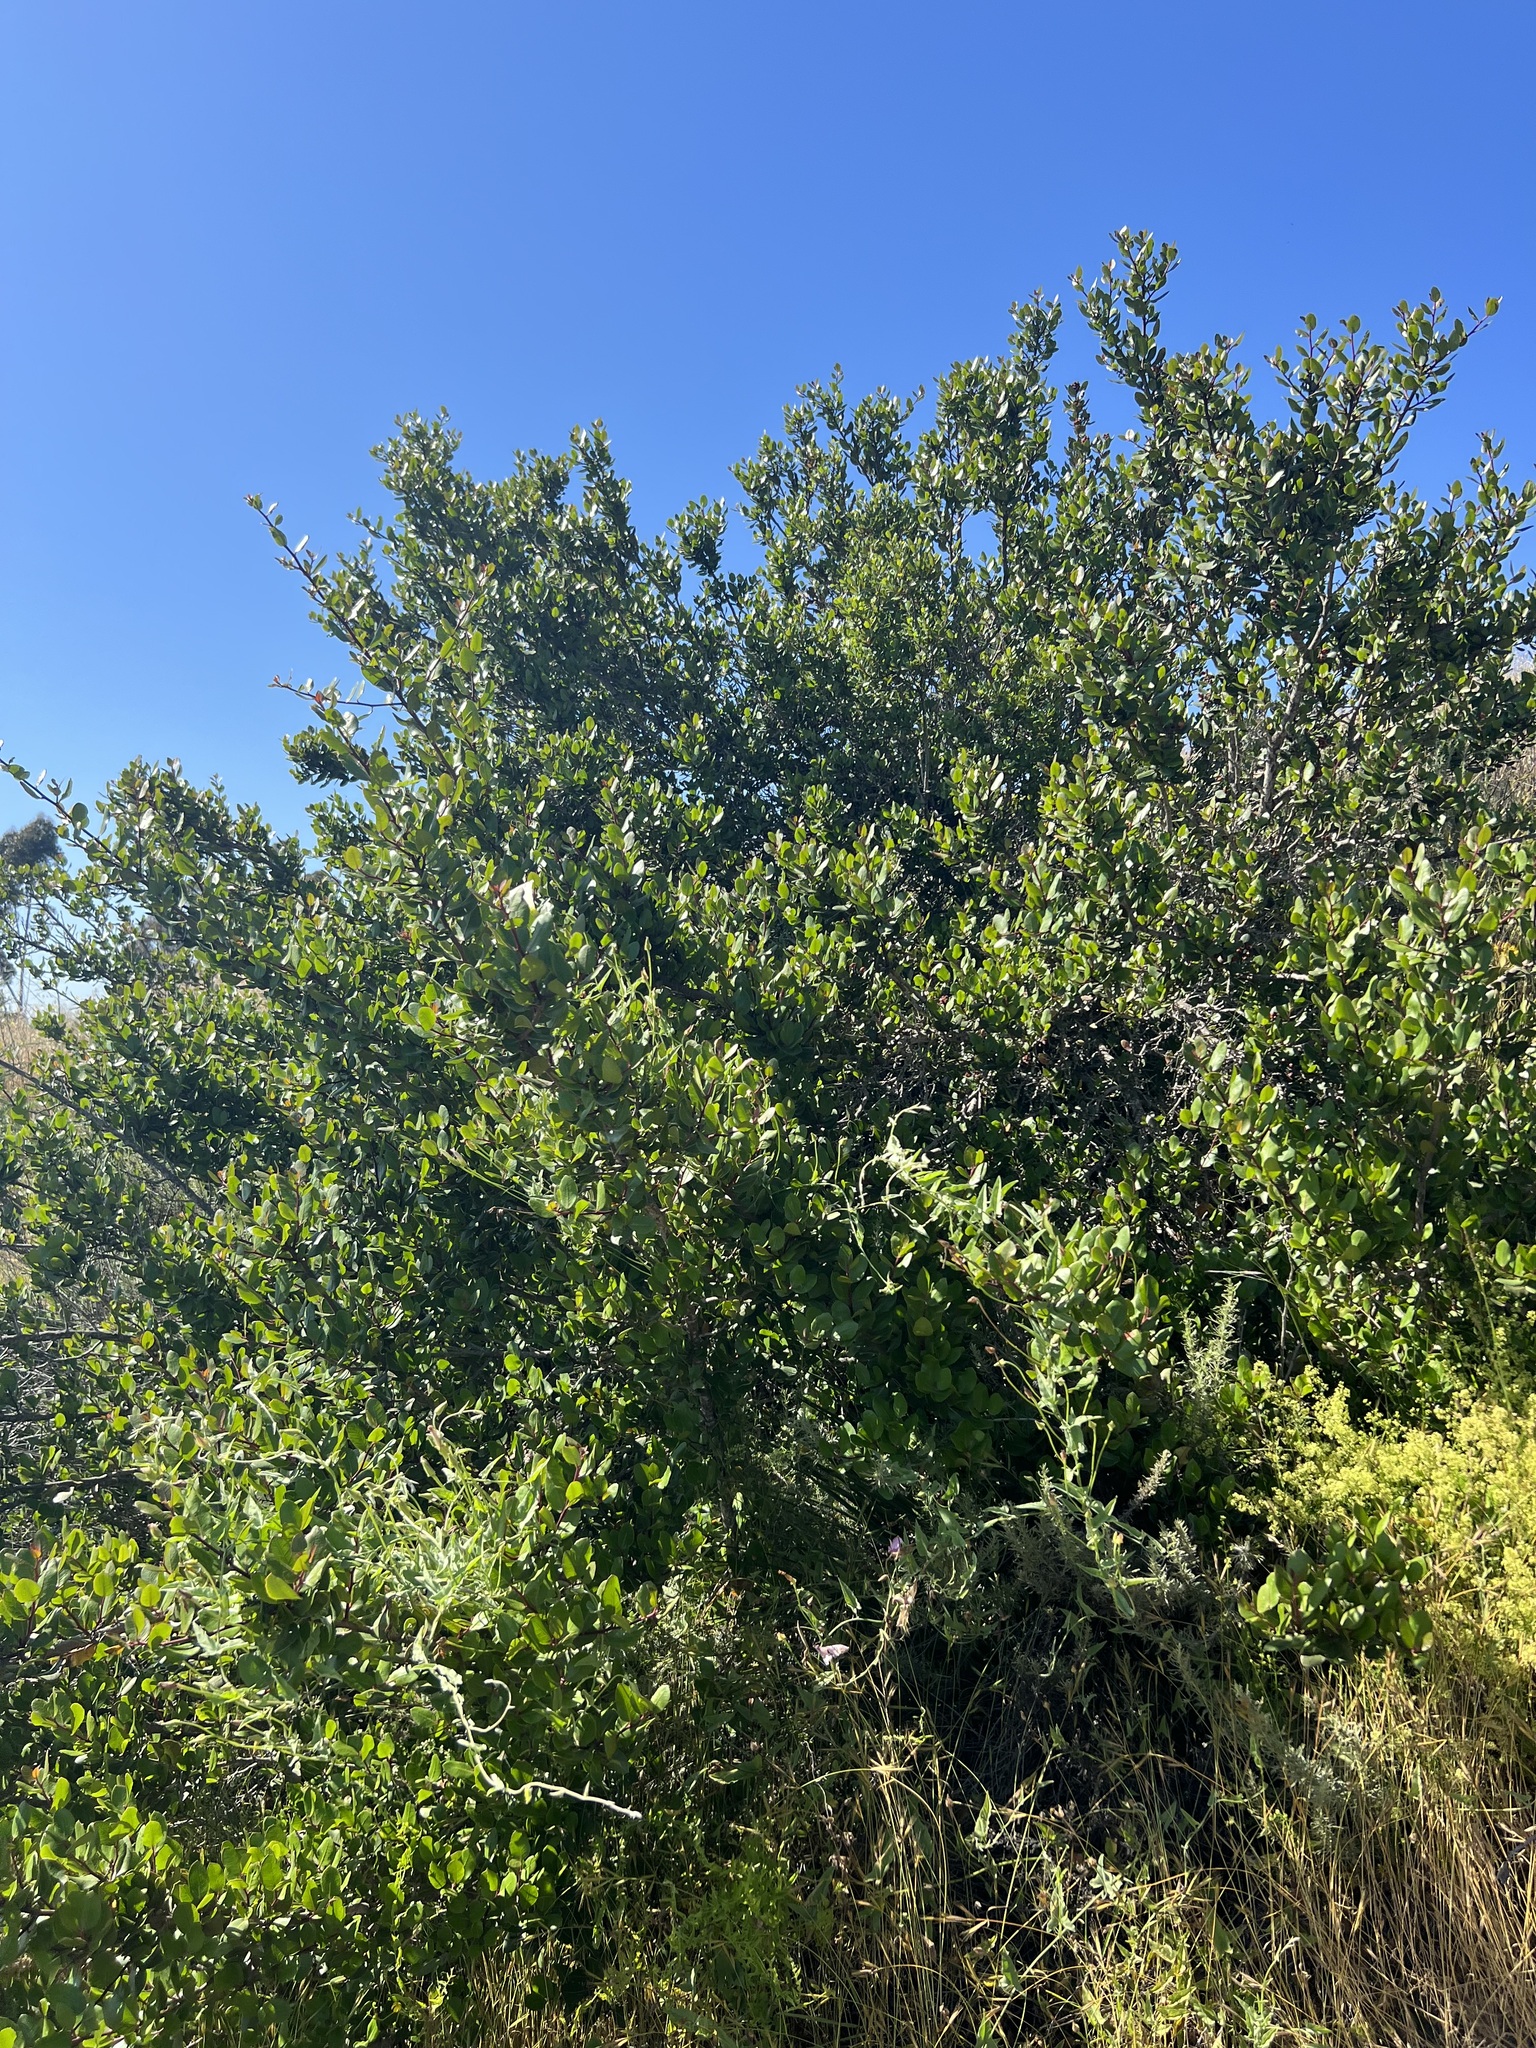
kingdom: Plantae
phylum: Tracheophyta
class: Magnoliopsida
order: Sapindales
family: Anacardiaceae
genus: Rhus
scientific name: Rhus integrifolia
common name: Lemonade sumac
